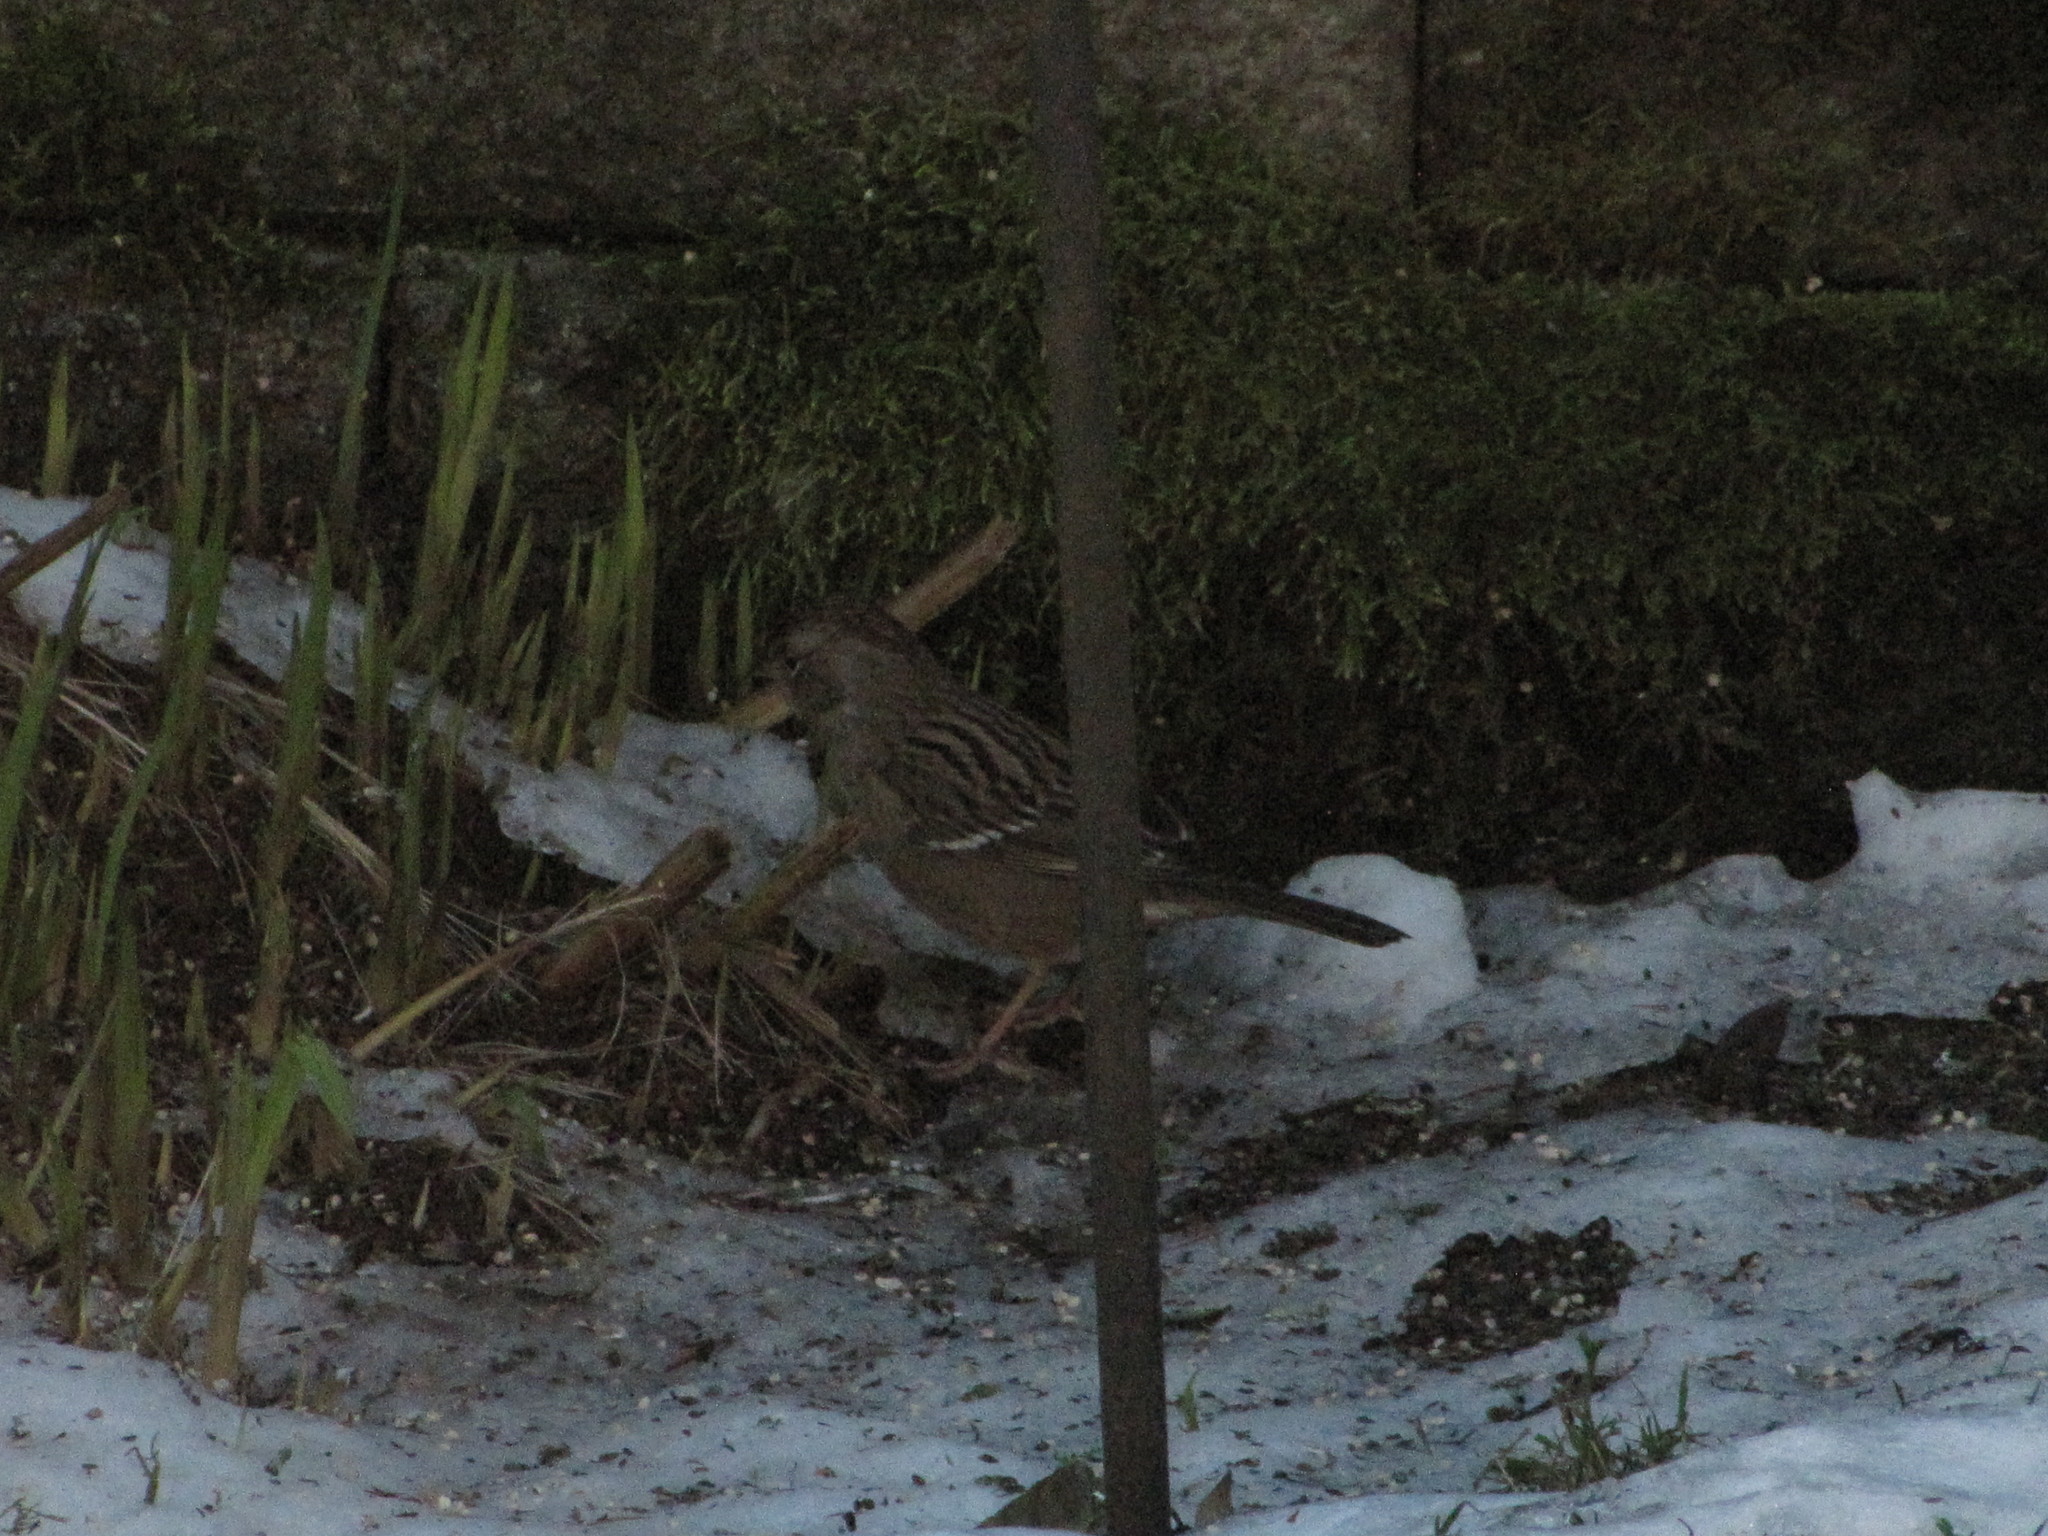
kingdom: Animalia
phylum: Chordata
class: Aves
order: Passeriformes
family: Passerellidae
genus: Zonotrichia
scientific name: Zonotrichia atricapilla
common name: Golden-crowned sparrow
